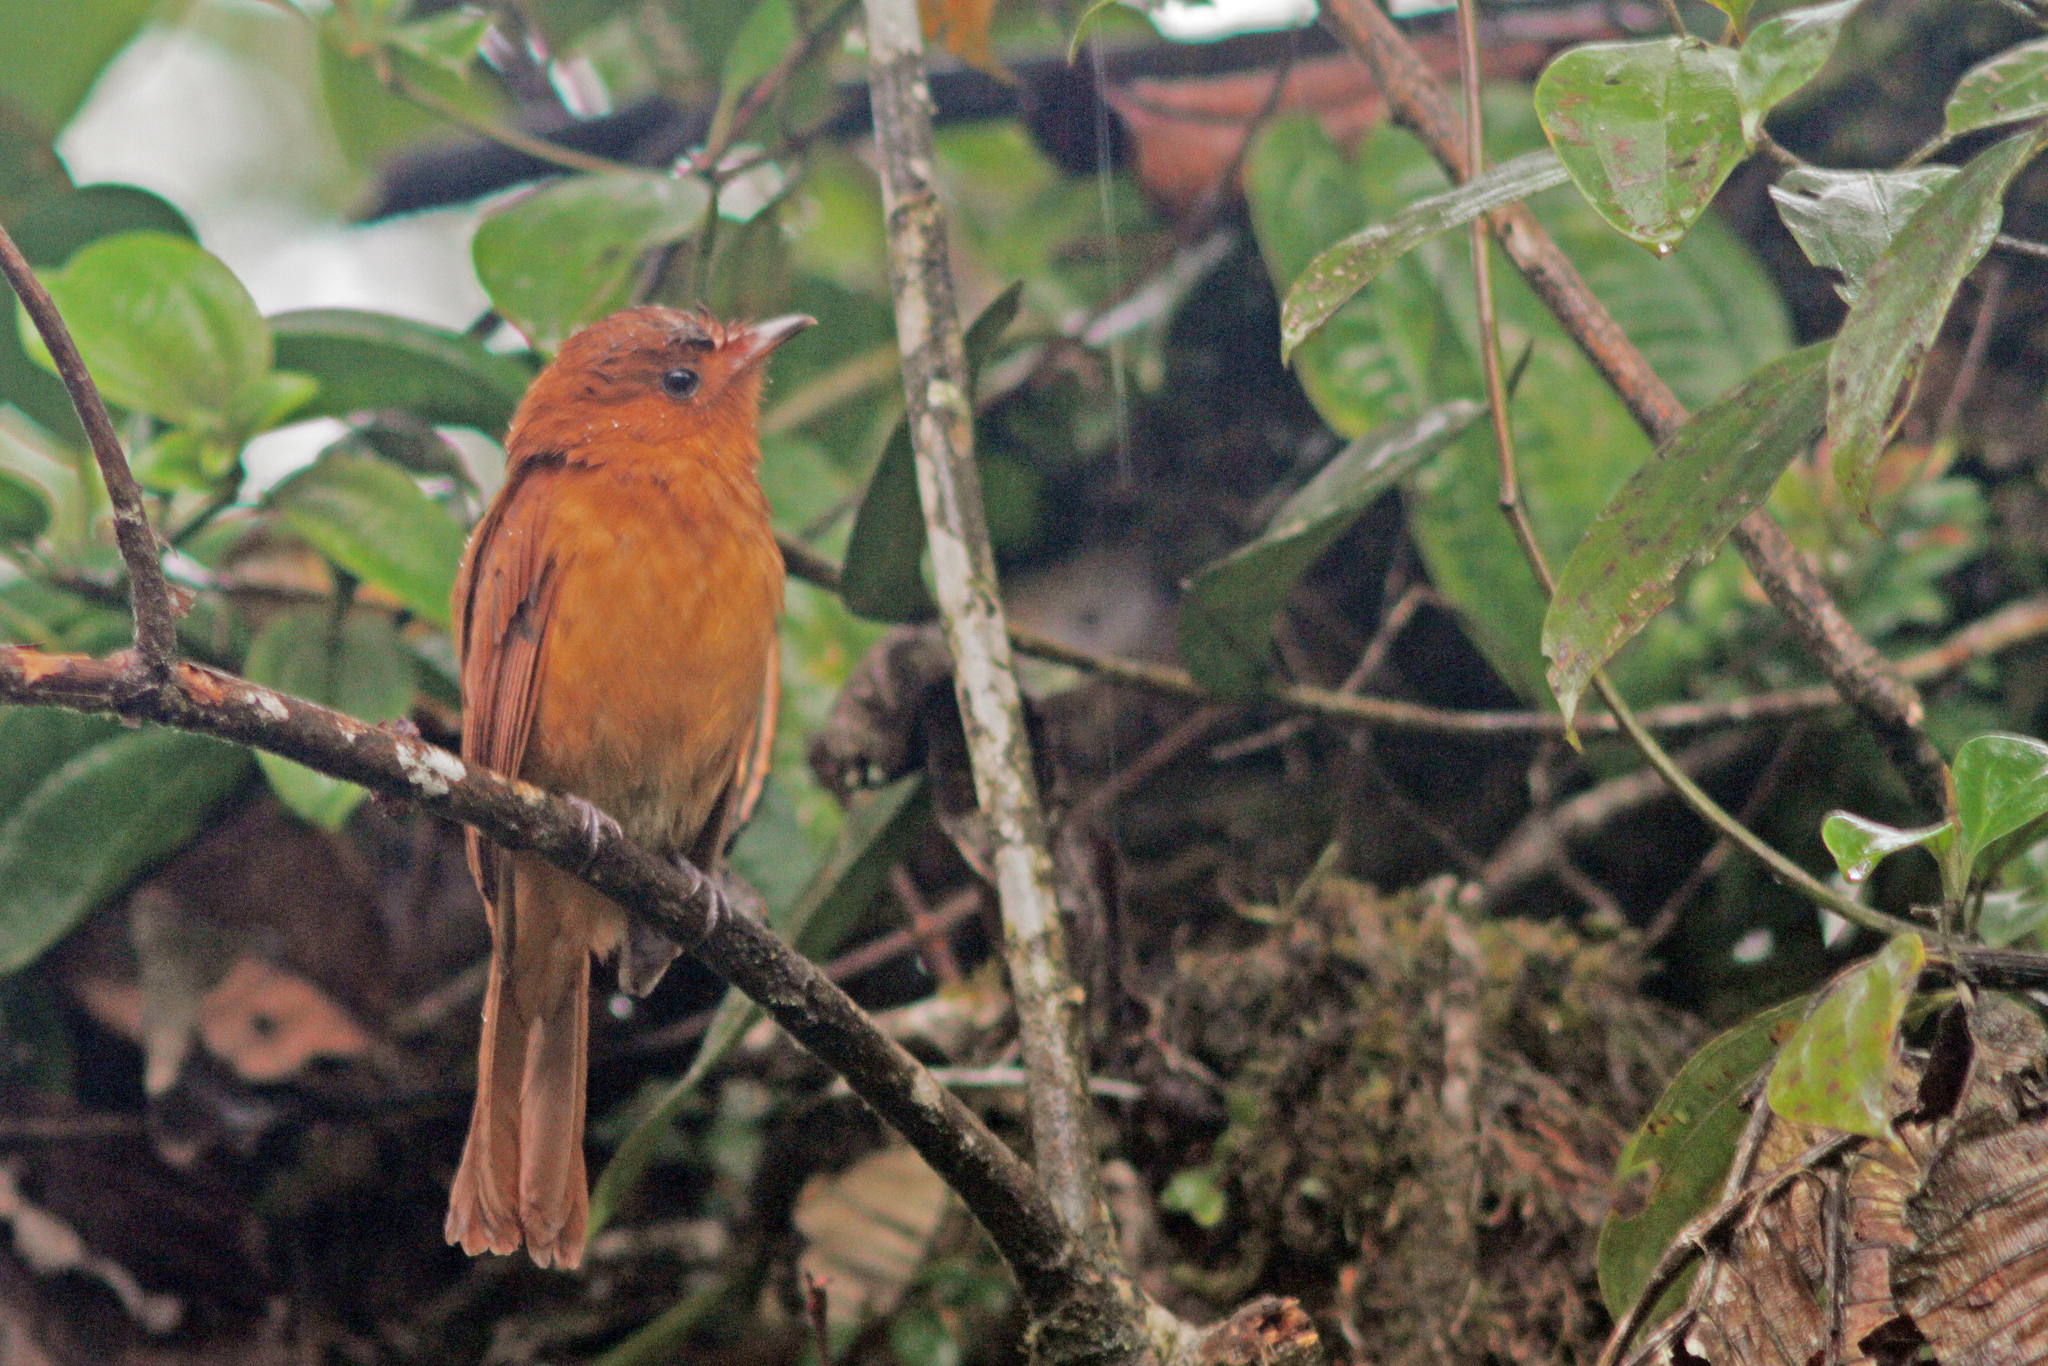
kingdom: Animalia
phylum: Chordata
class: Aves
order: Passeriformes
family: Tyrannidae
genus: Rhytipterna
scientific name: Rhytipterna holerythra
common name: Rufous mourner
